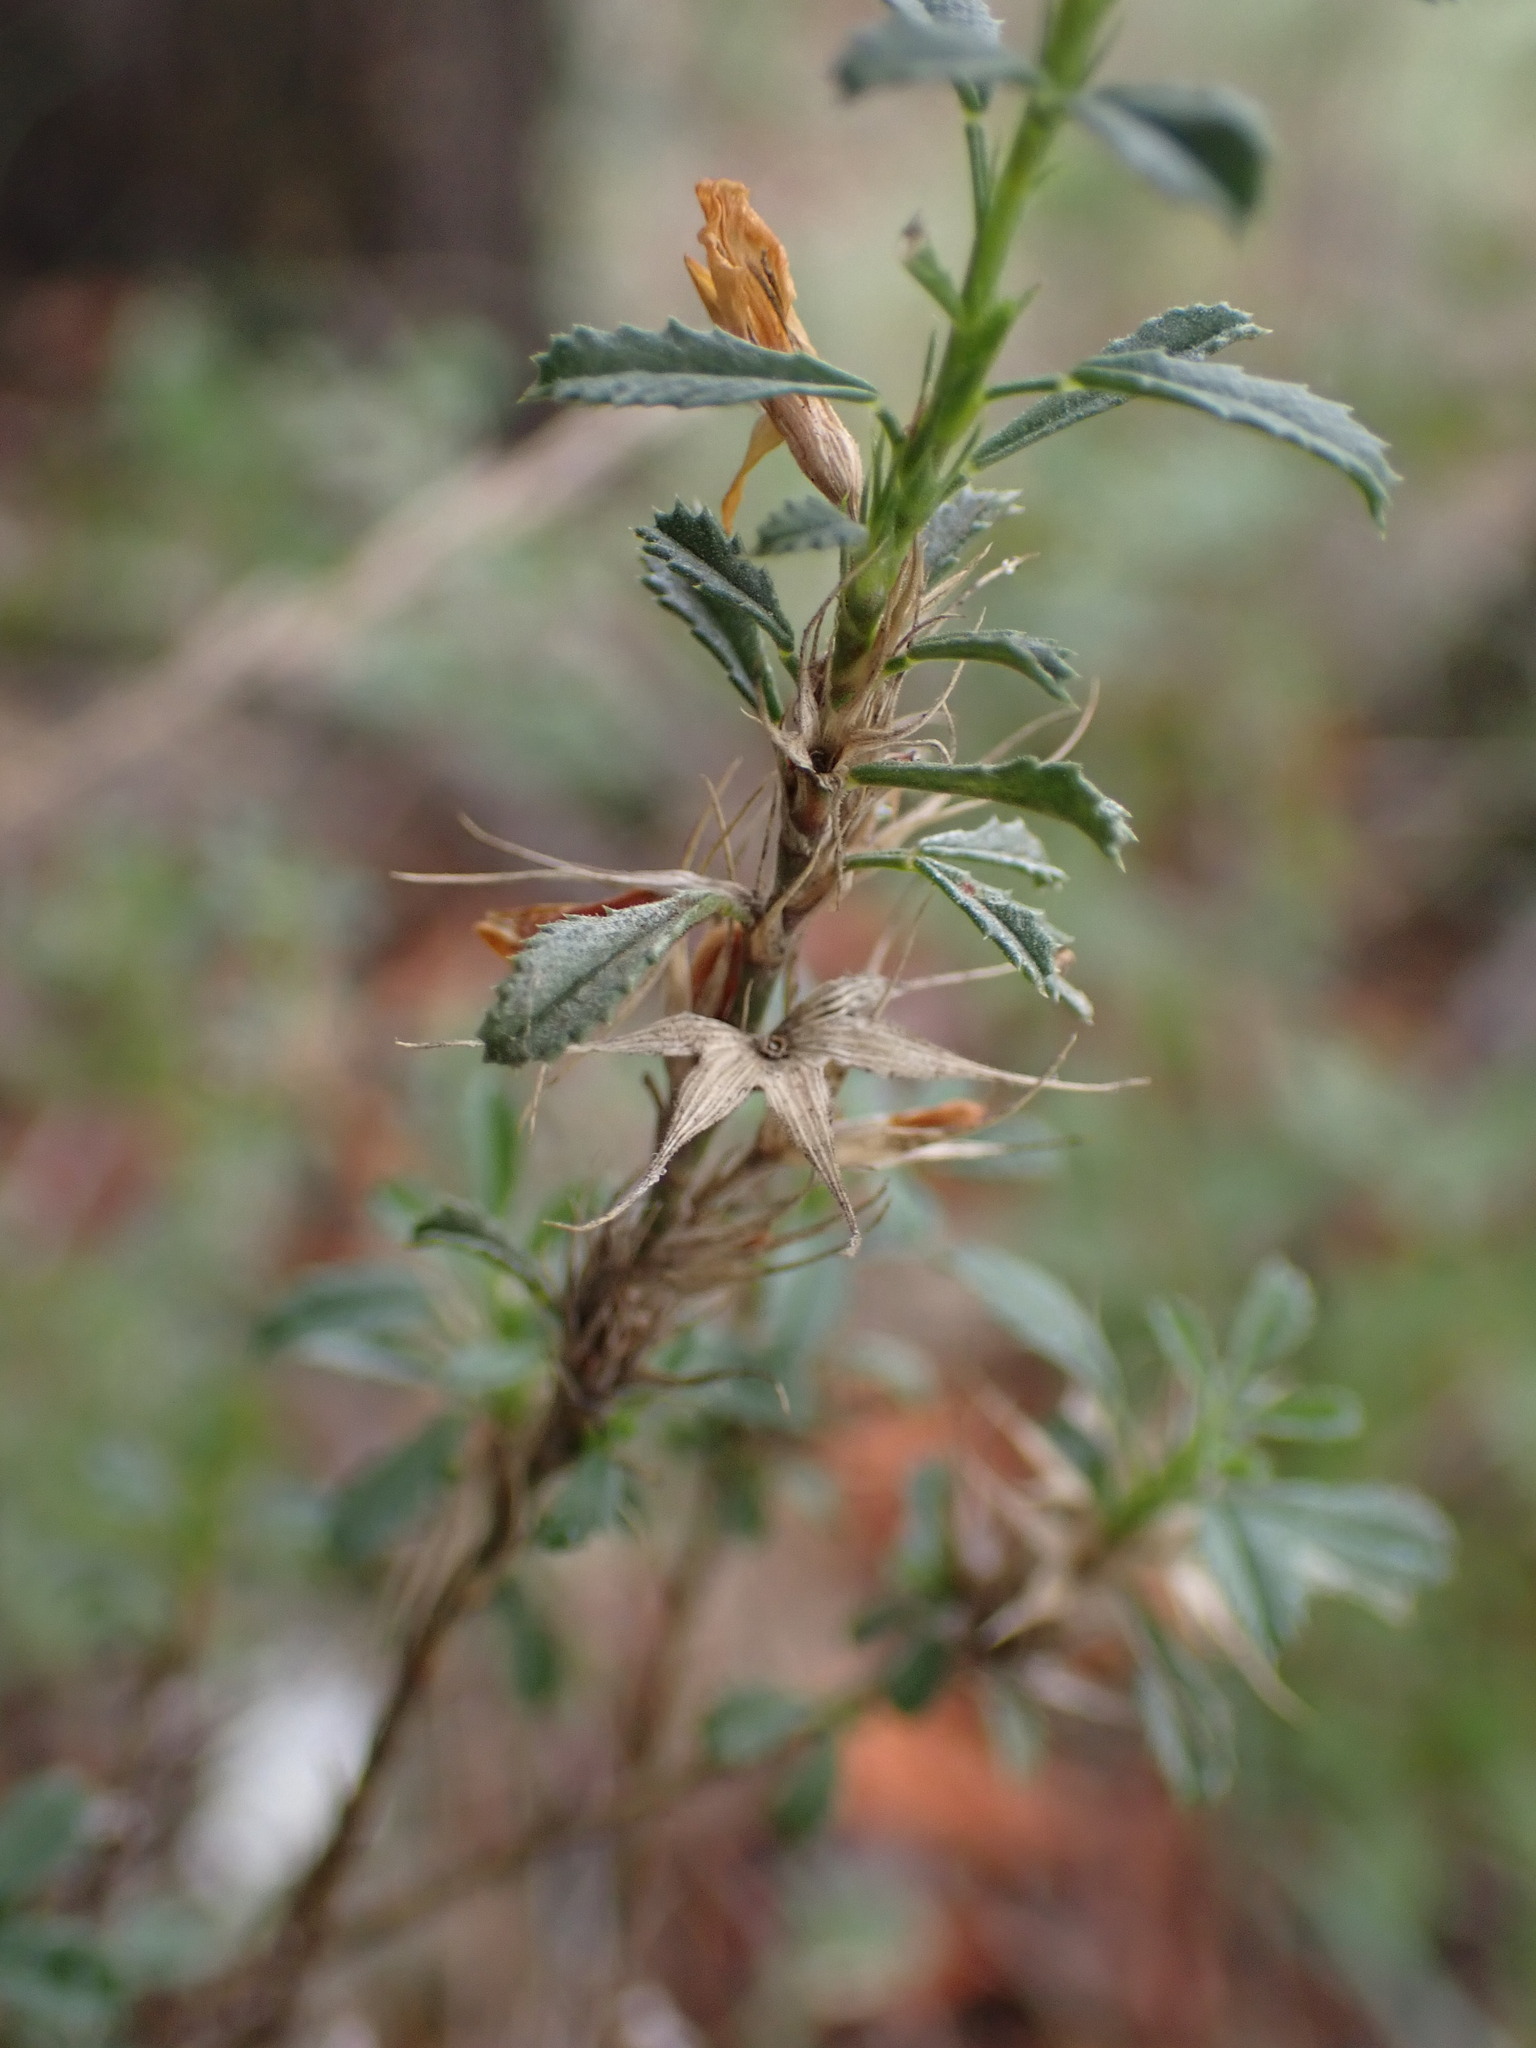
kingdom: Plantae
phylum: Tracheophyta
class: Magnoliopsida
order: Fabales
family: Fabaceae
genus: Ononis
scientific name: Ononis minutissima
